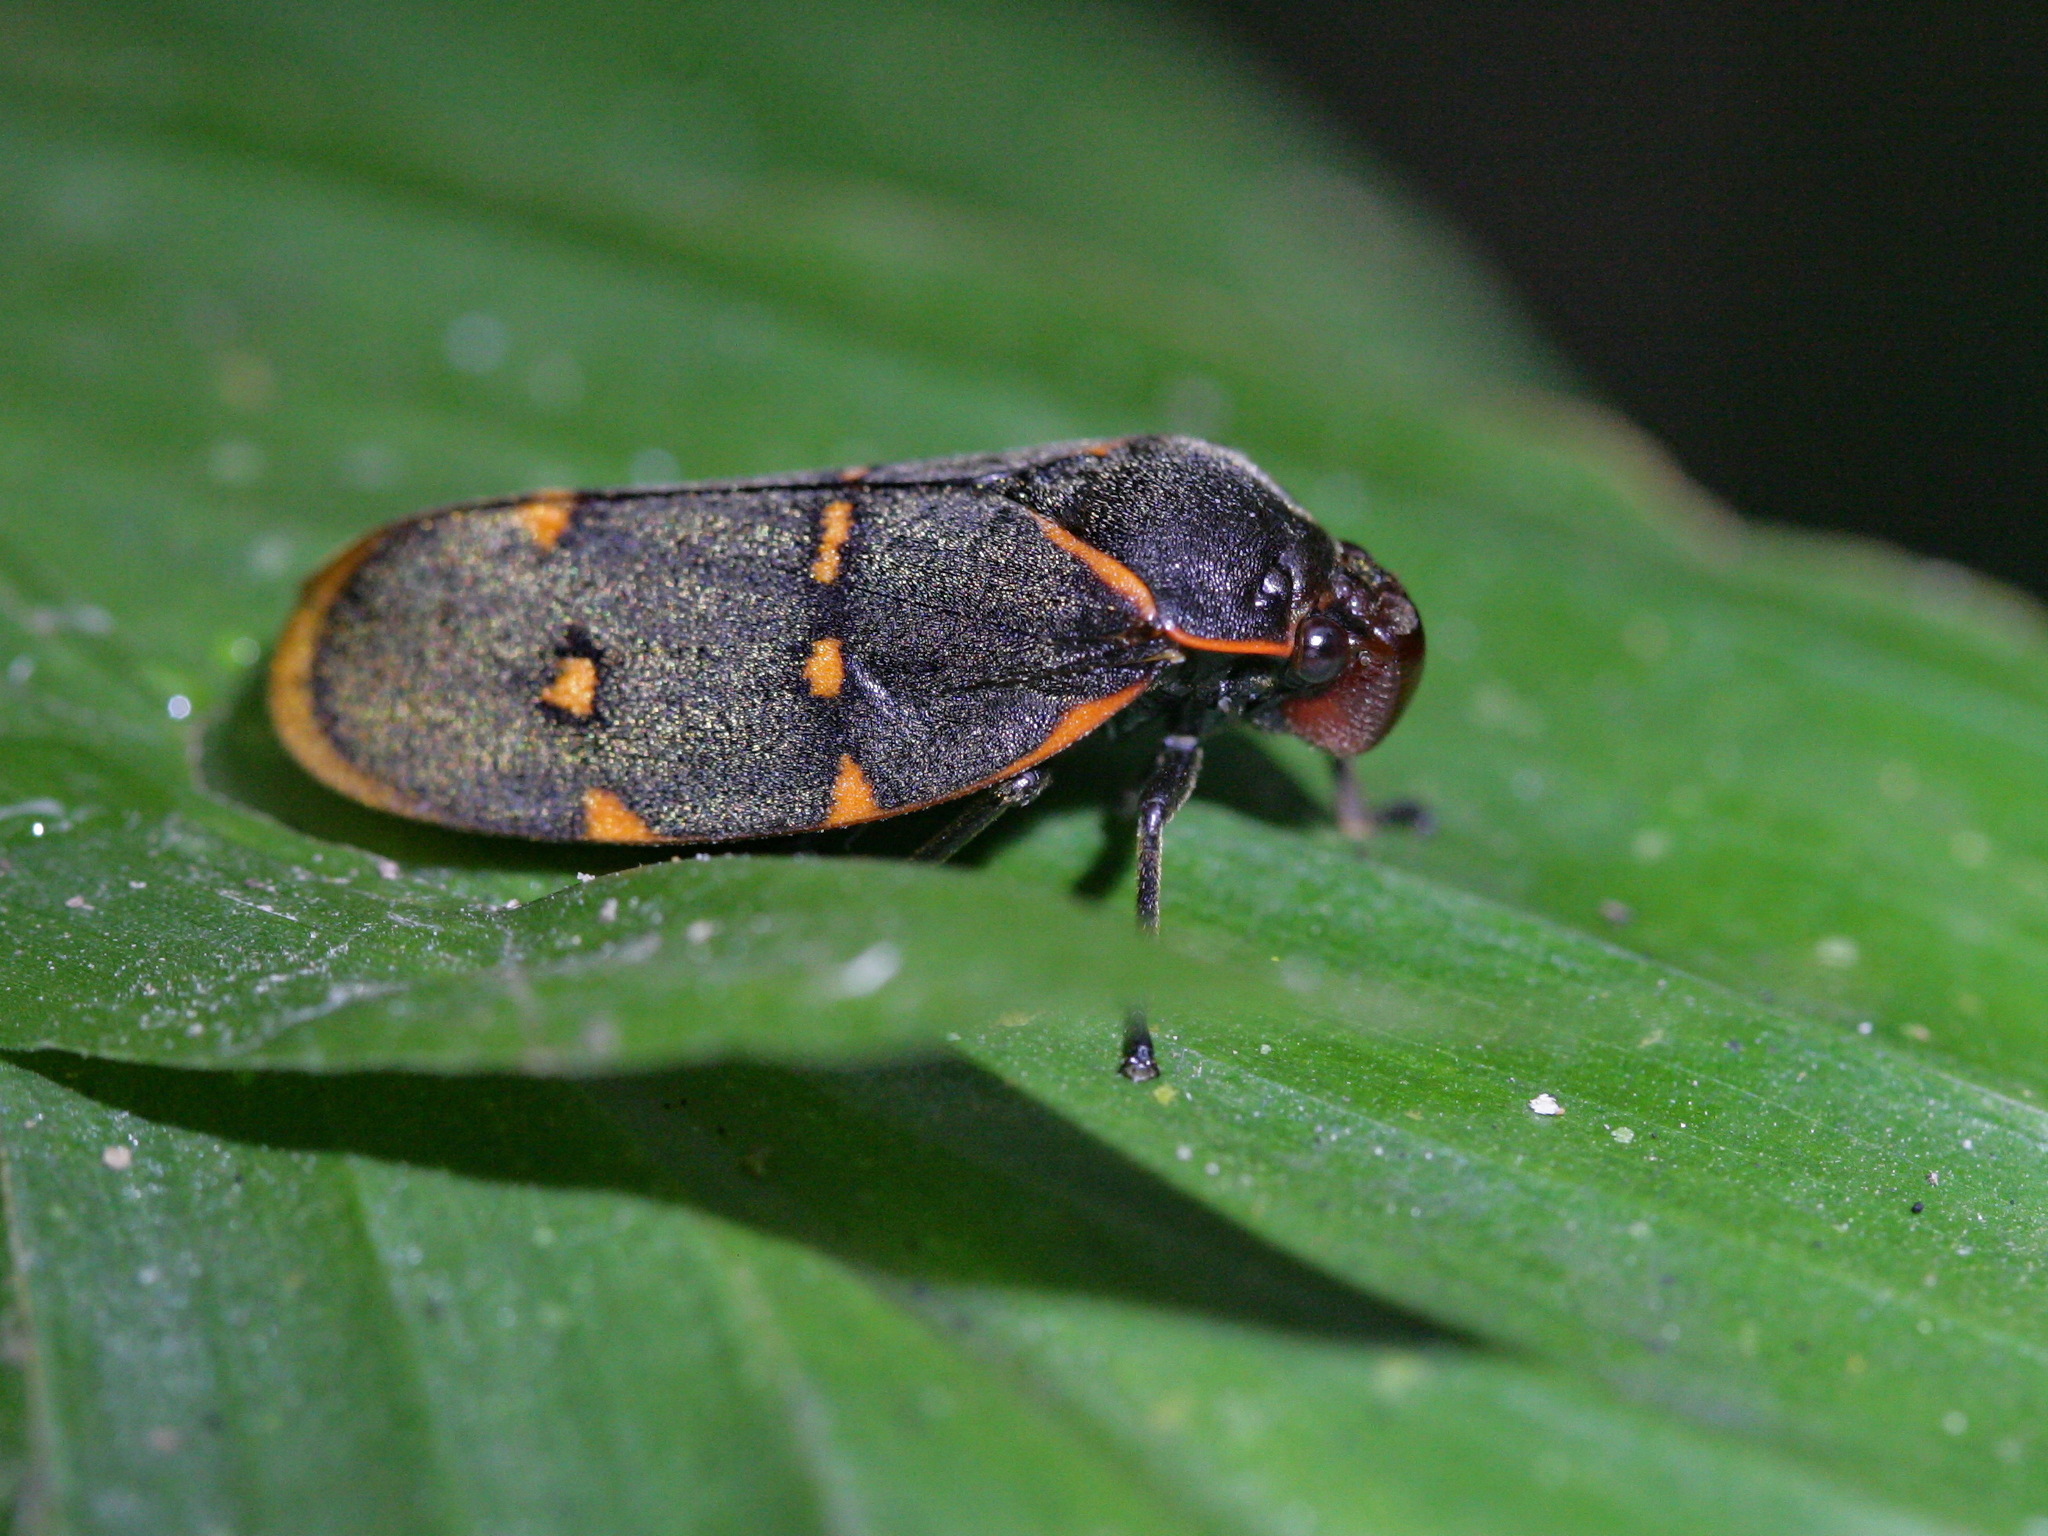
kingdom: Animalia
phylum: Arthropoda
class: Insecta
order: Hemiptera
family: Cercopidae
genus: Phymatostetha
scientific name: Phymatostetha triseriata
